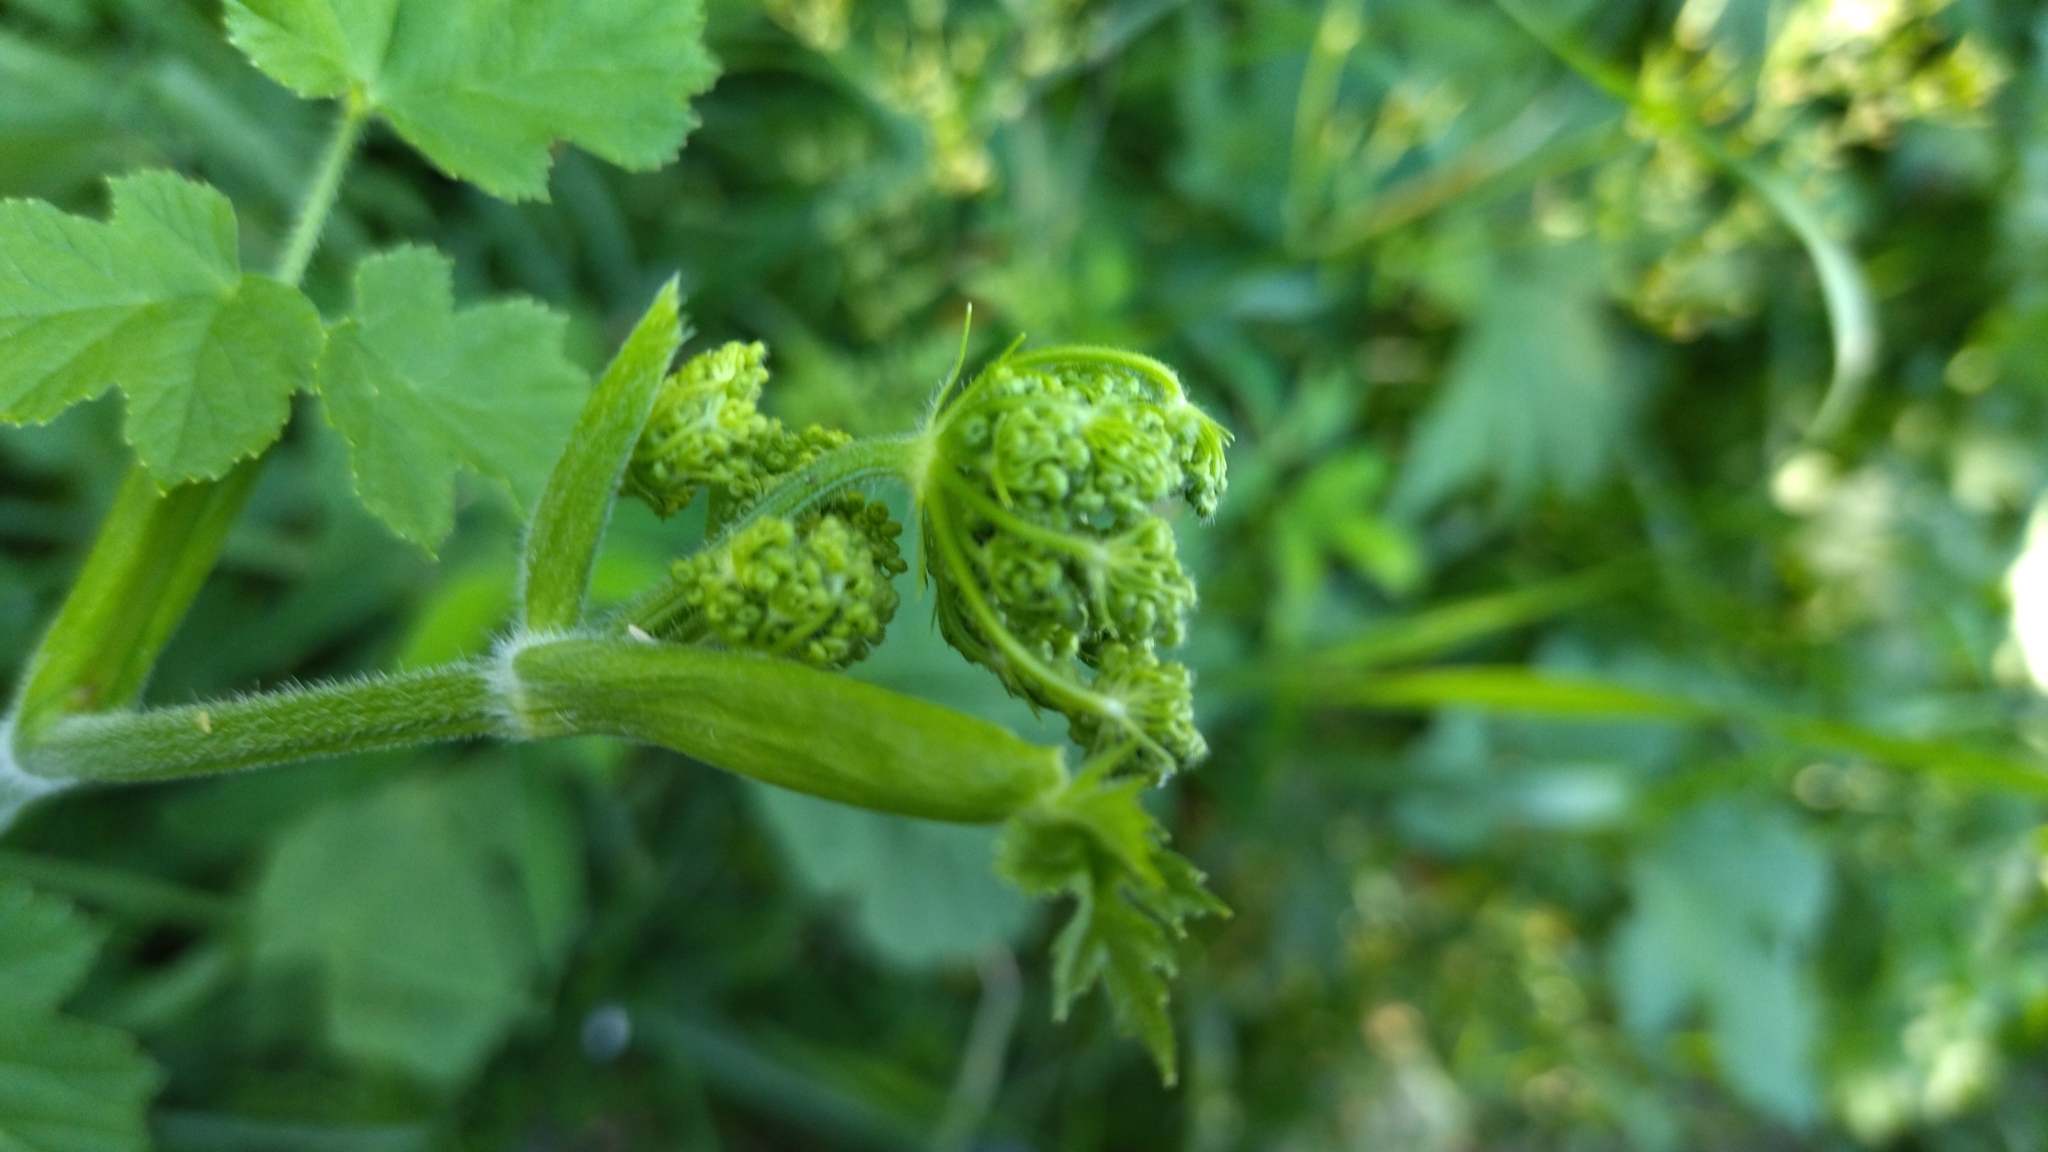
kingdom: Plantae
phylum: Tracheophyta
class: Magnoliopsida
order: Apiales
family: Apiaceae
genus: Heracleum
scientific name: Heracleum sphondylium
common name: Hogweed
